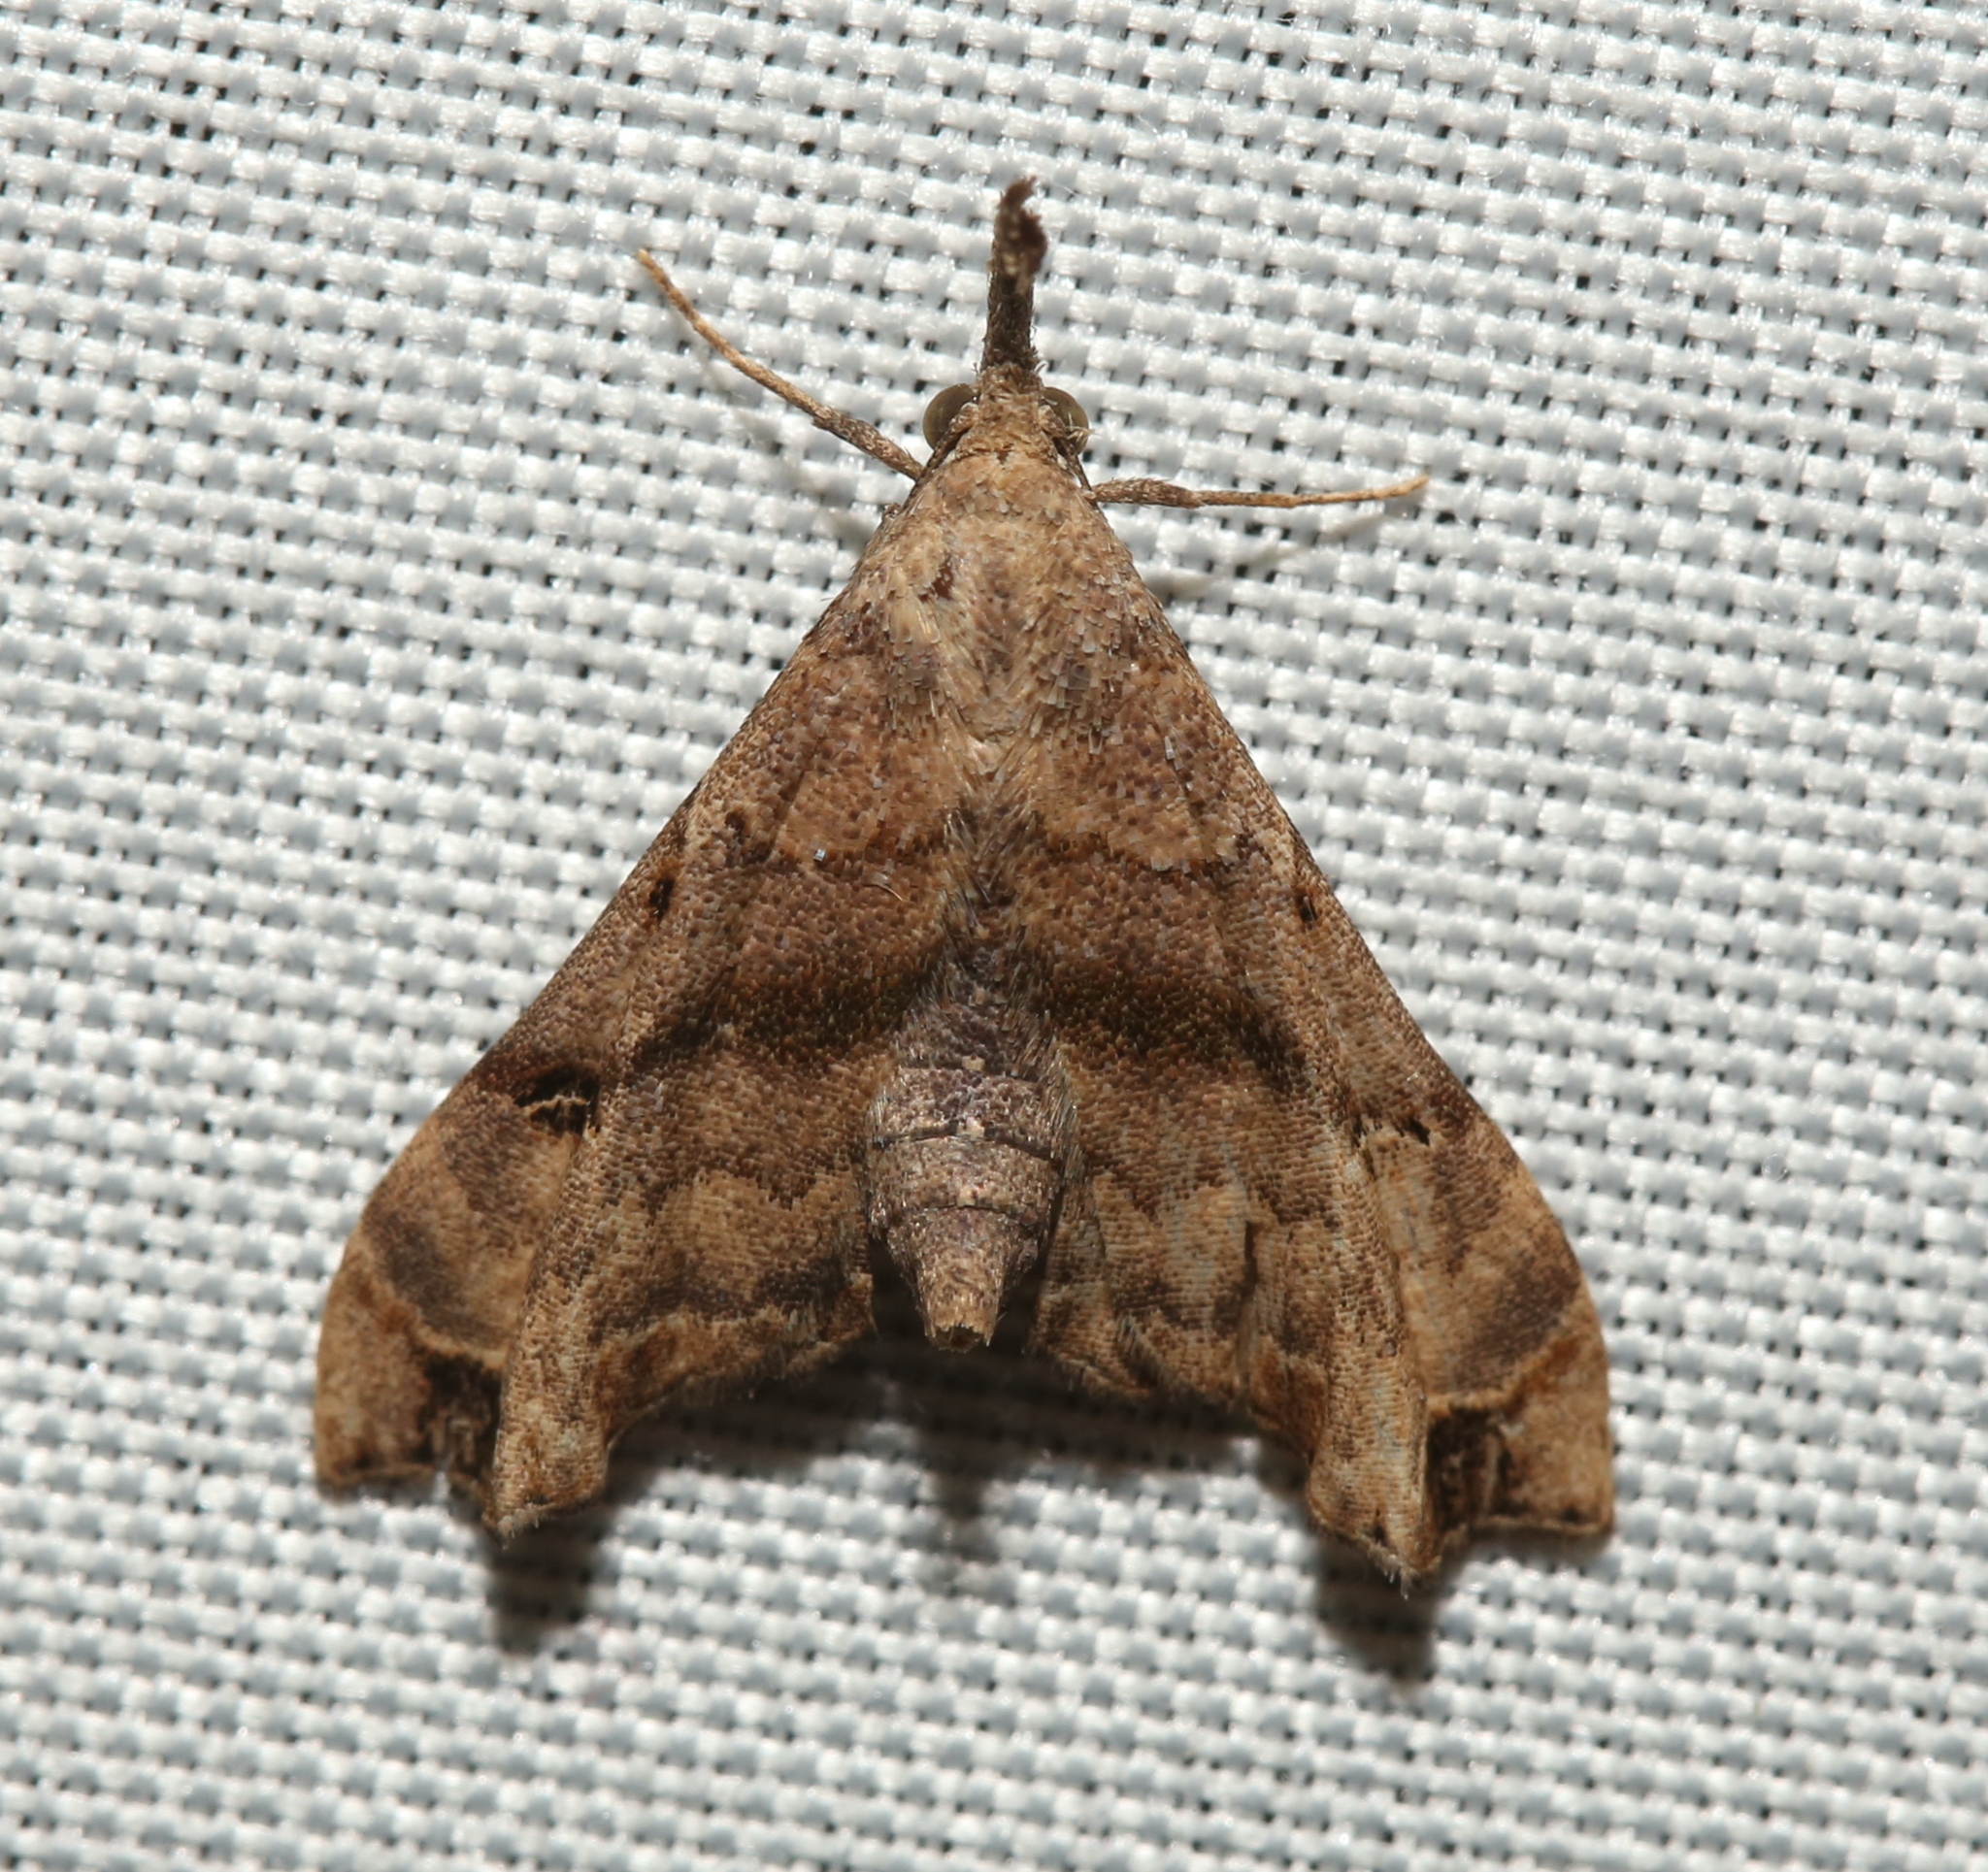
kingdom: Animalia
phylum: Arthropoda
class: Insecta
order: Lepidoptera
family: Erebidae
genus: Palthis
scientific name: Palthis asopialis
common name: Faint-spotted palthis moth
